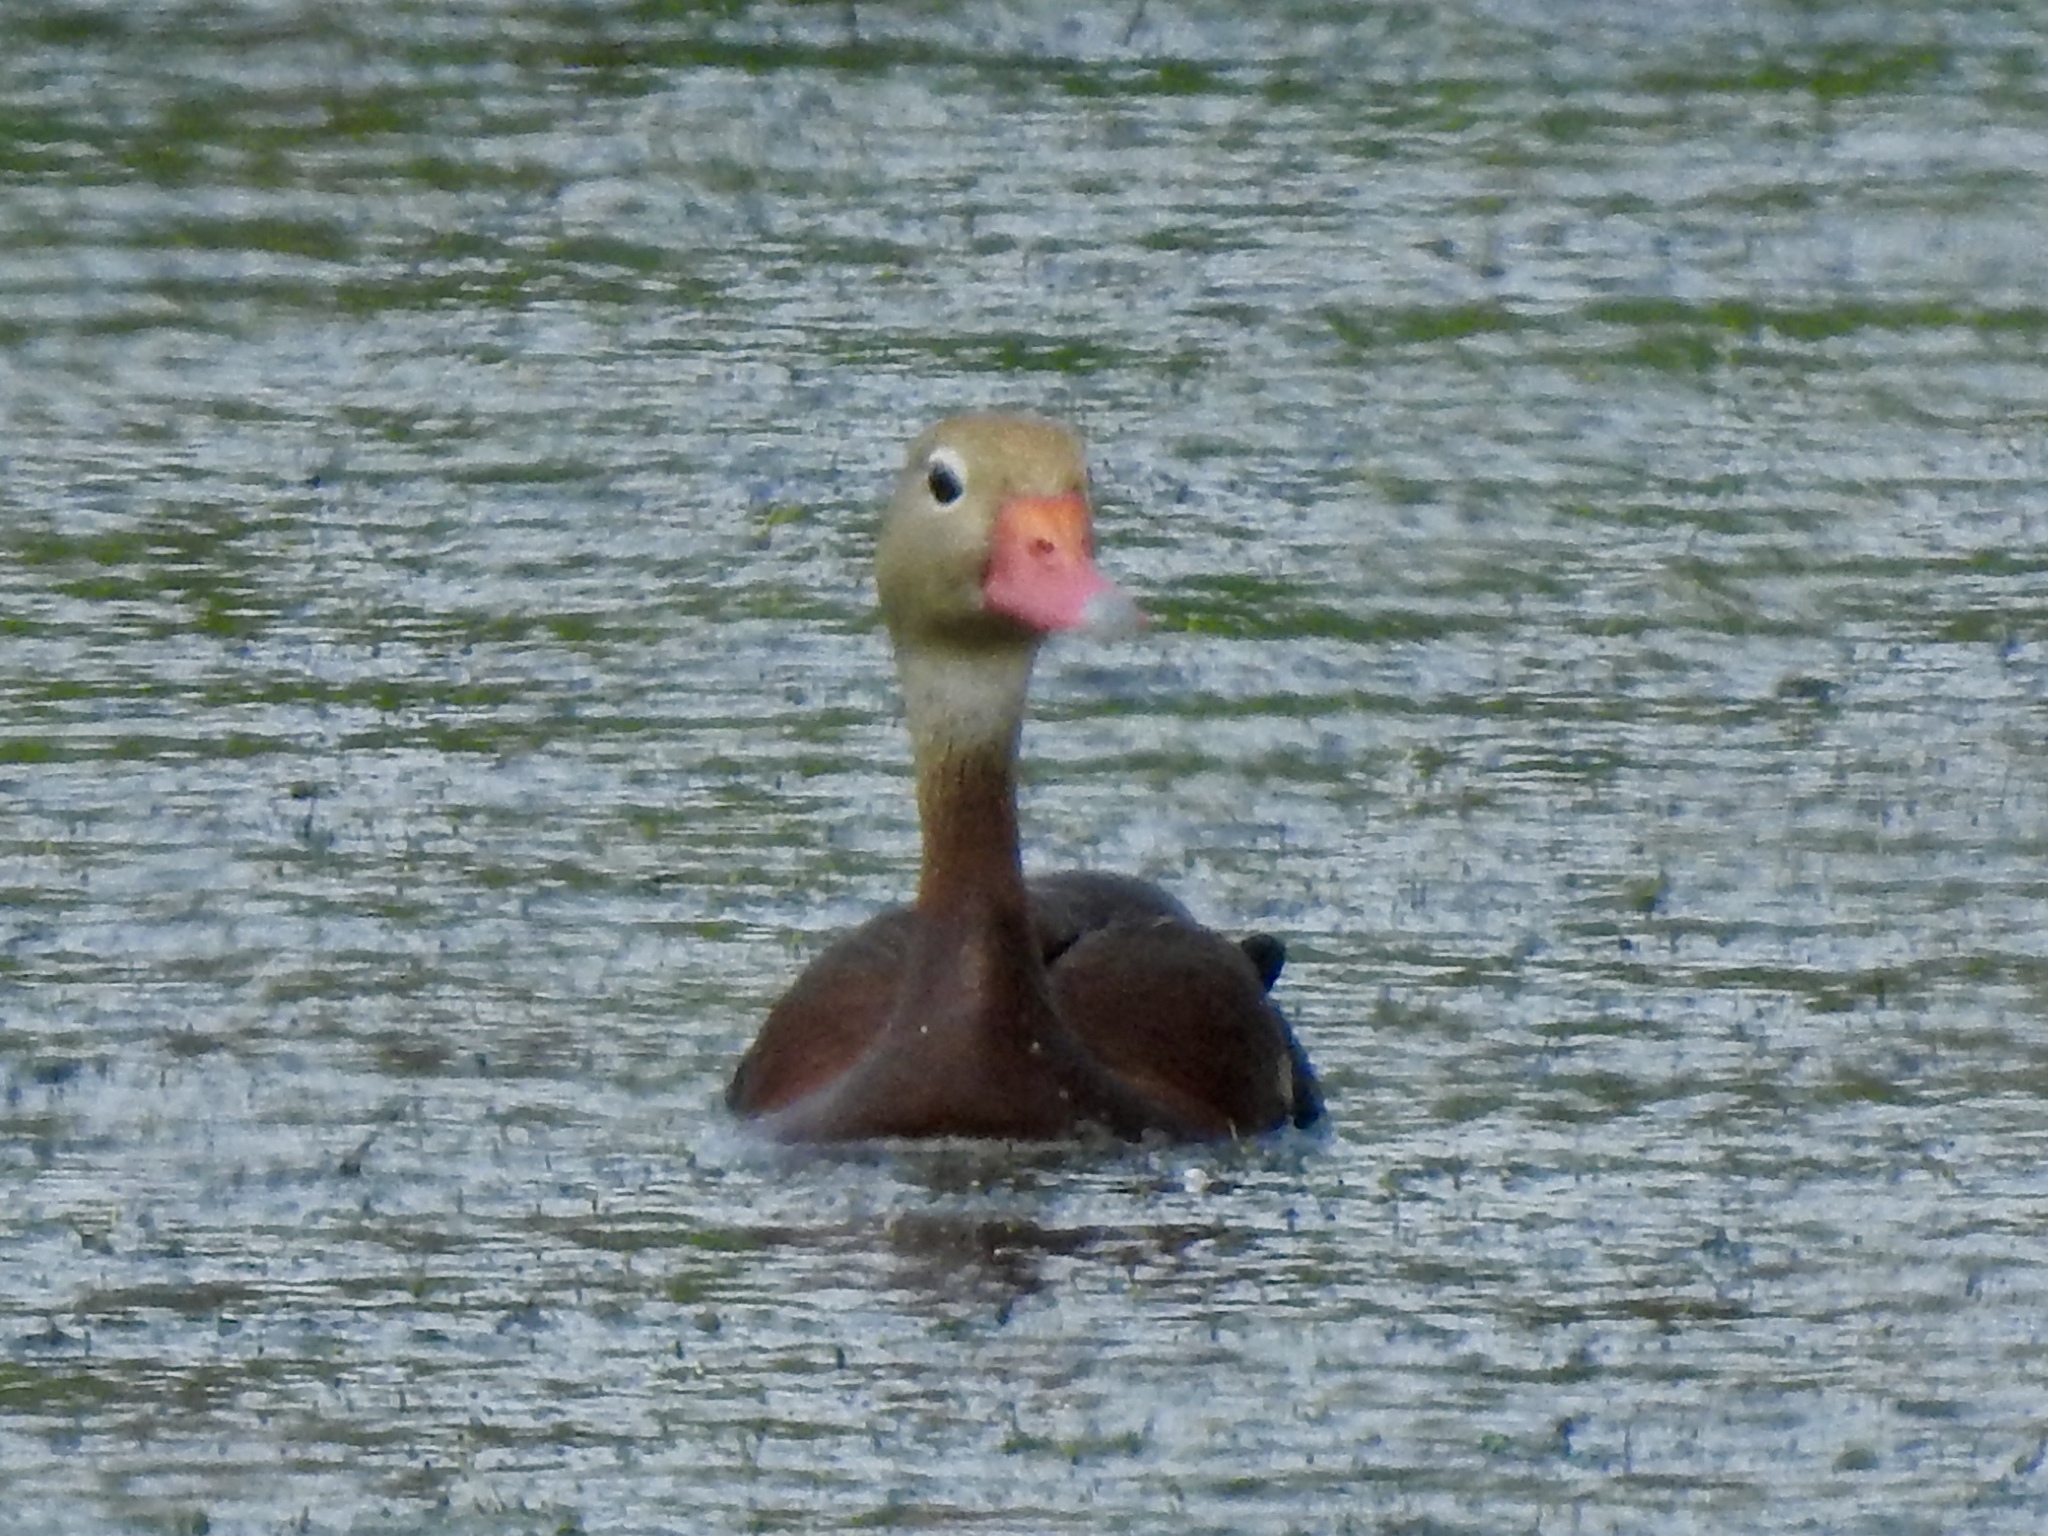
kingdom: Animalia
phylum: Chordata
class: Aves
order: Anseriformes
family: Anatidae
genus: Dendrocygna
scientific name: Dendrocygna autumnalis
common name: Black-bellied whistling duck
